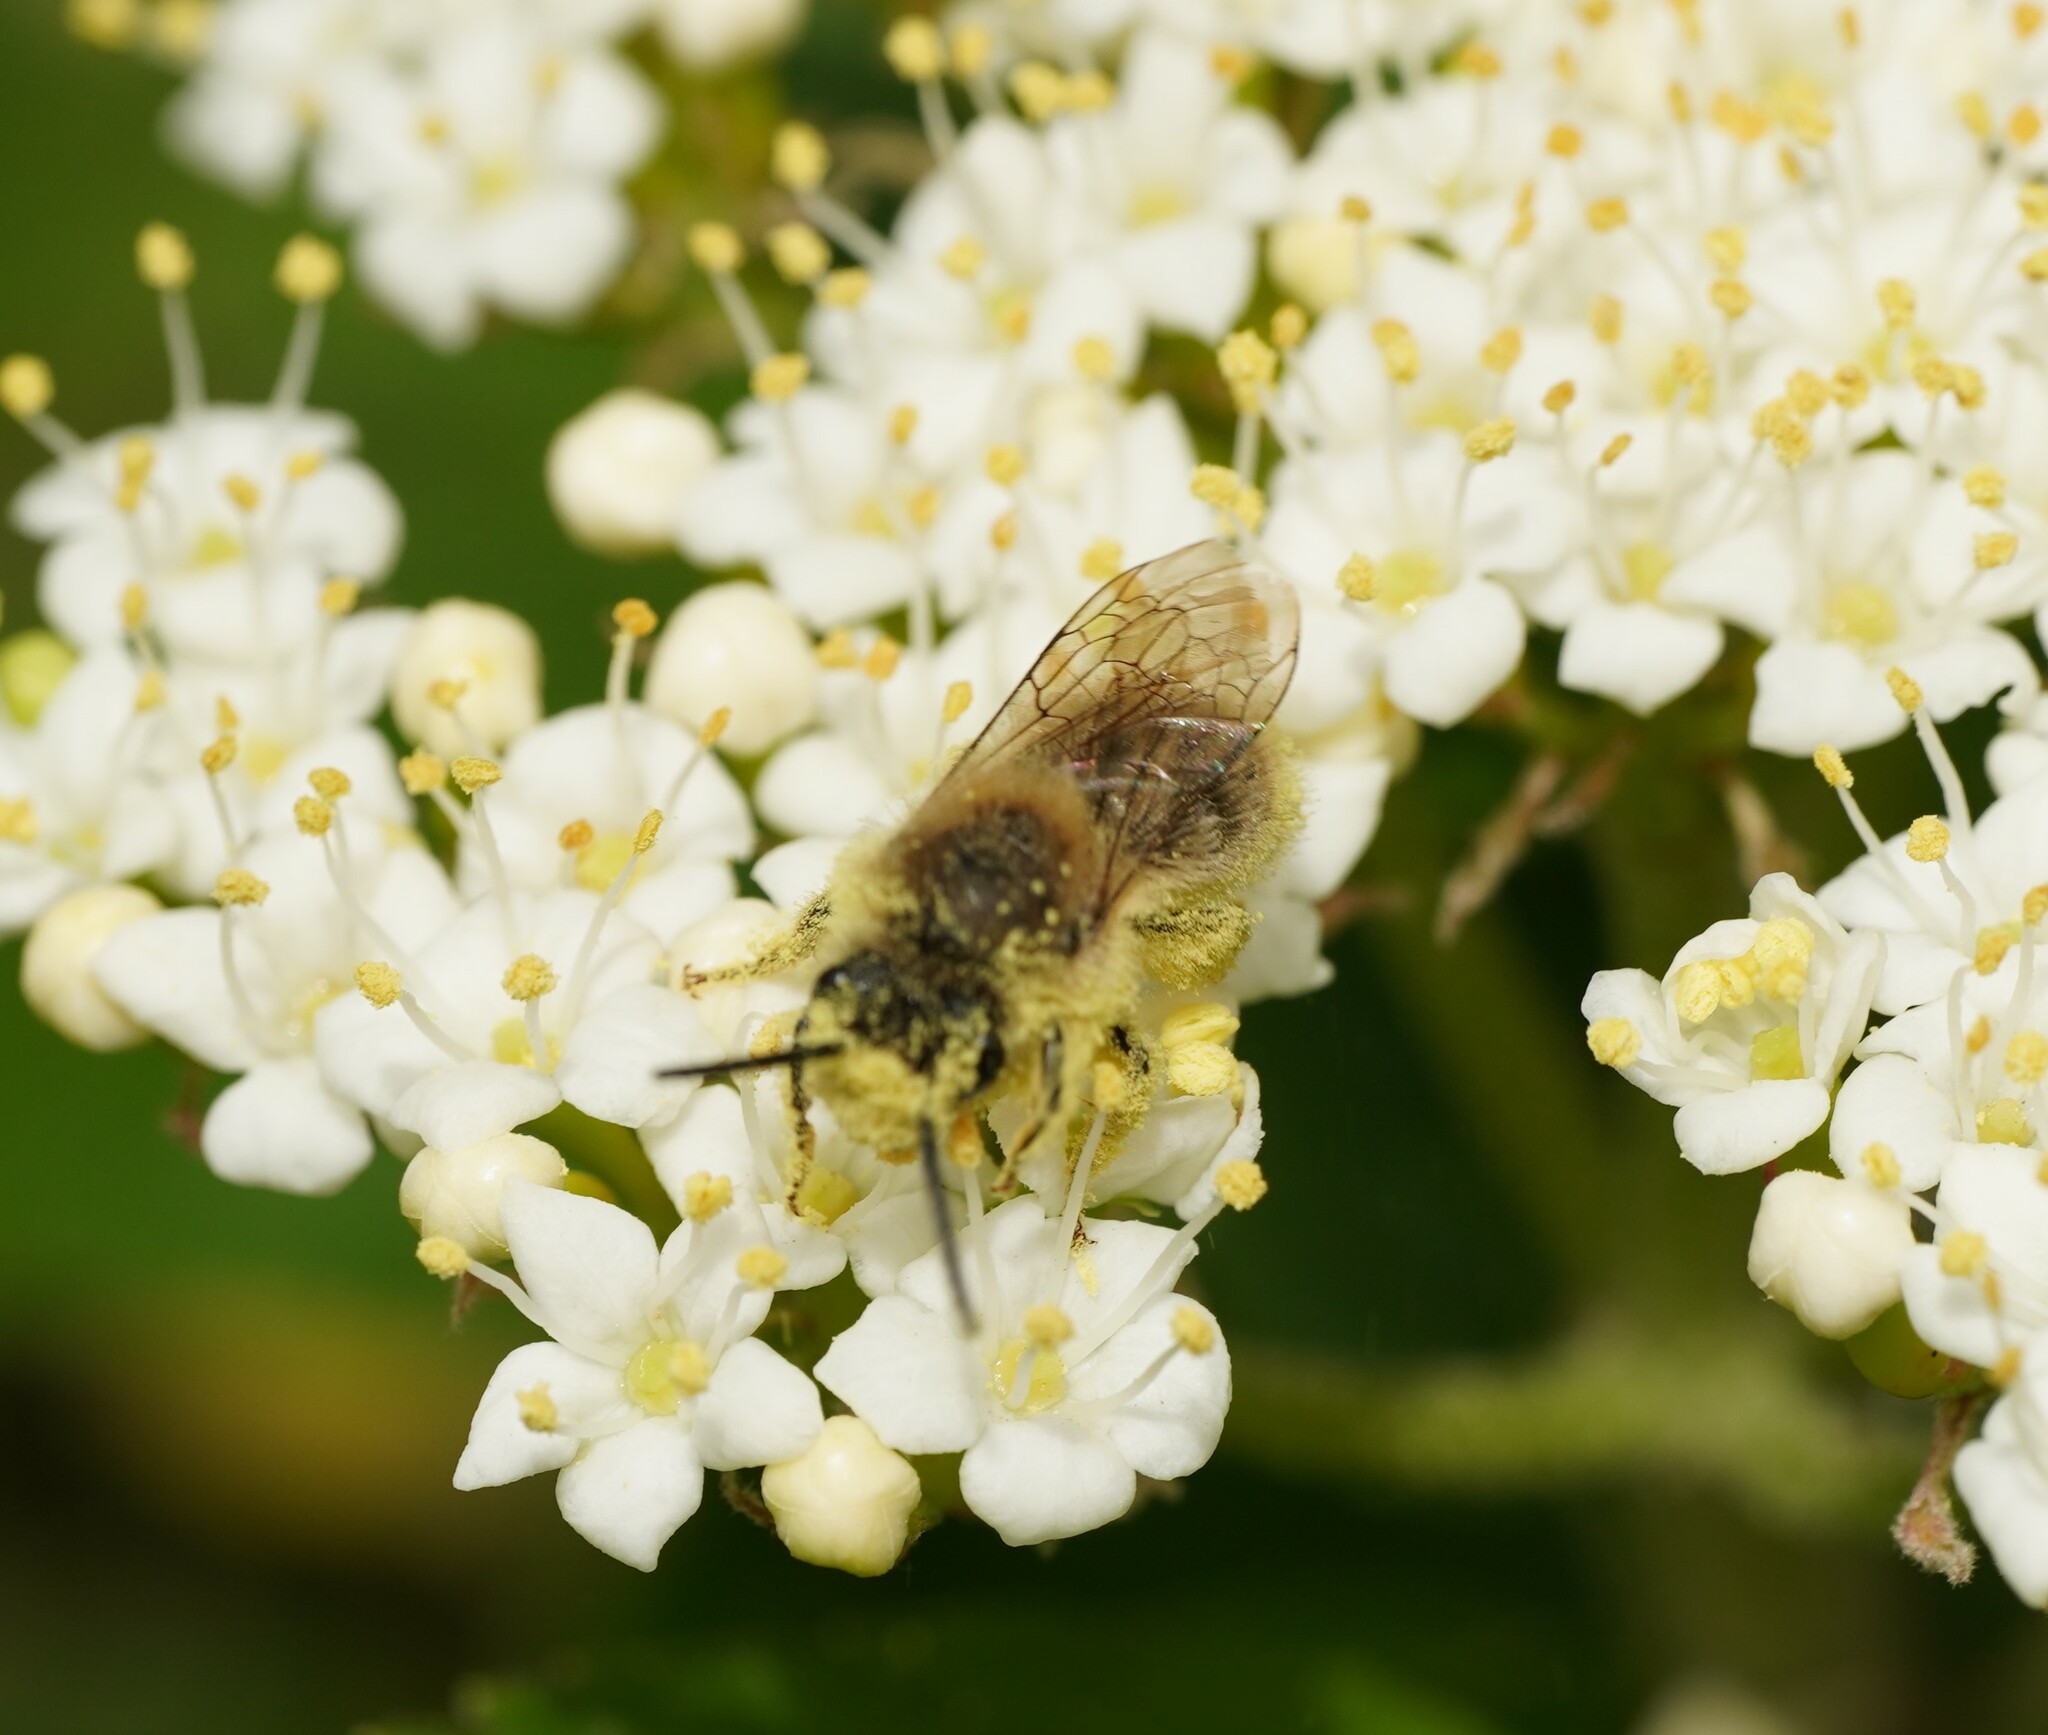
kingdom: Animalia
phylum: Arthropoda
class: Insecta
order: Hymenoptera
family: Colletidae
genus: Colletes
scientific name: Colletes cunicularius
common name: Early colletes
